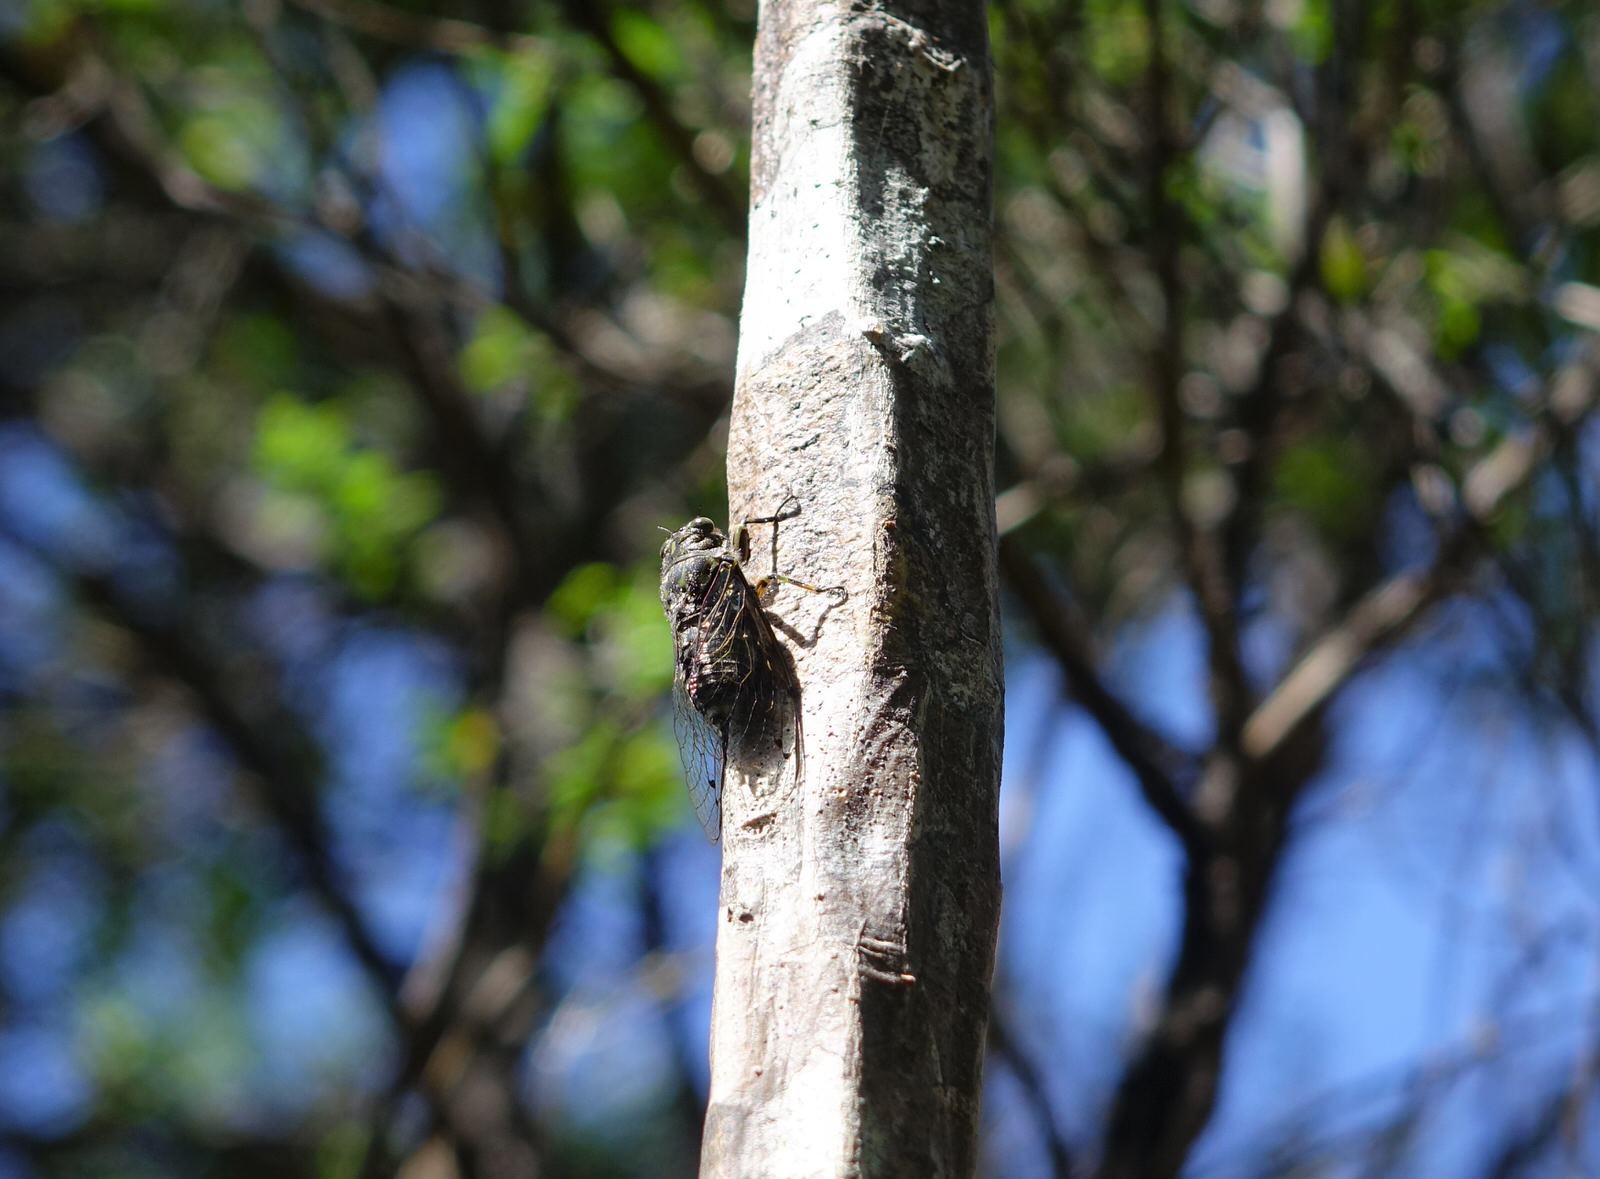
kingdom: Animalia
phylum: Arthropoda
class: Insecta
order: Hemiptera
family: Cicadidae
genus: Amphipsalta
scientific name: Amphipsalta zelandica
